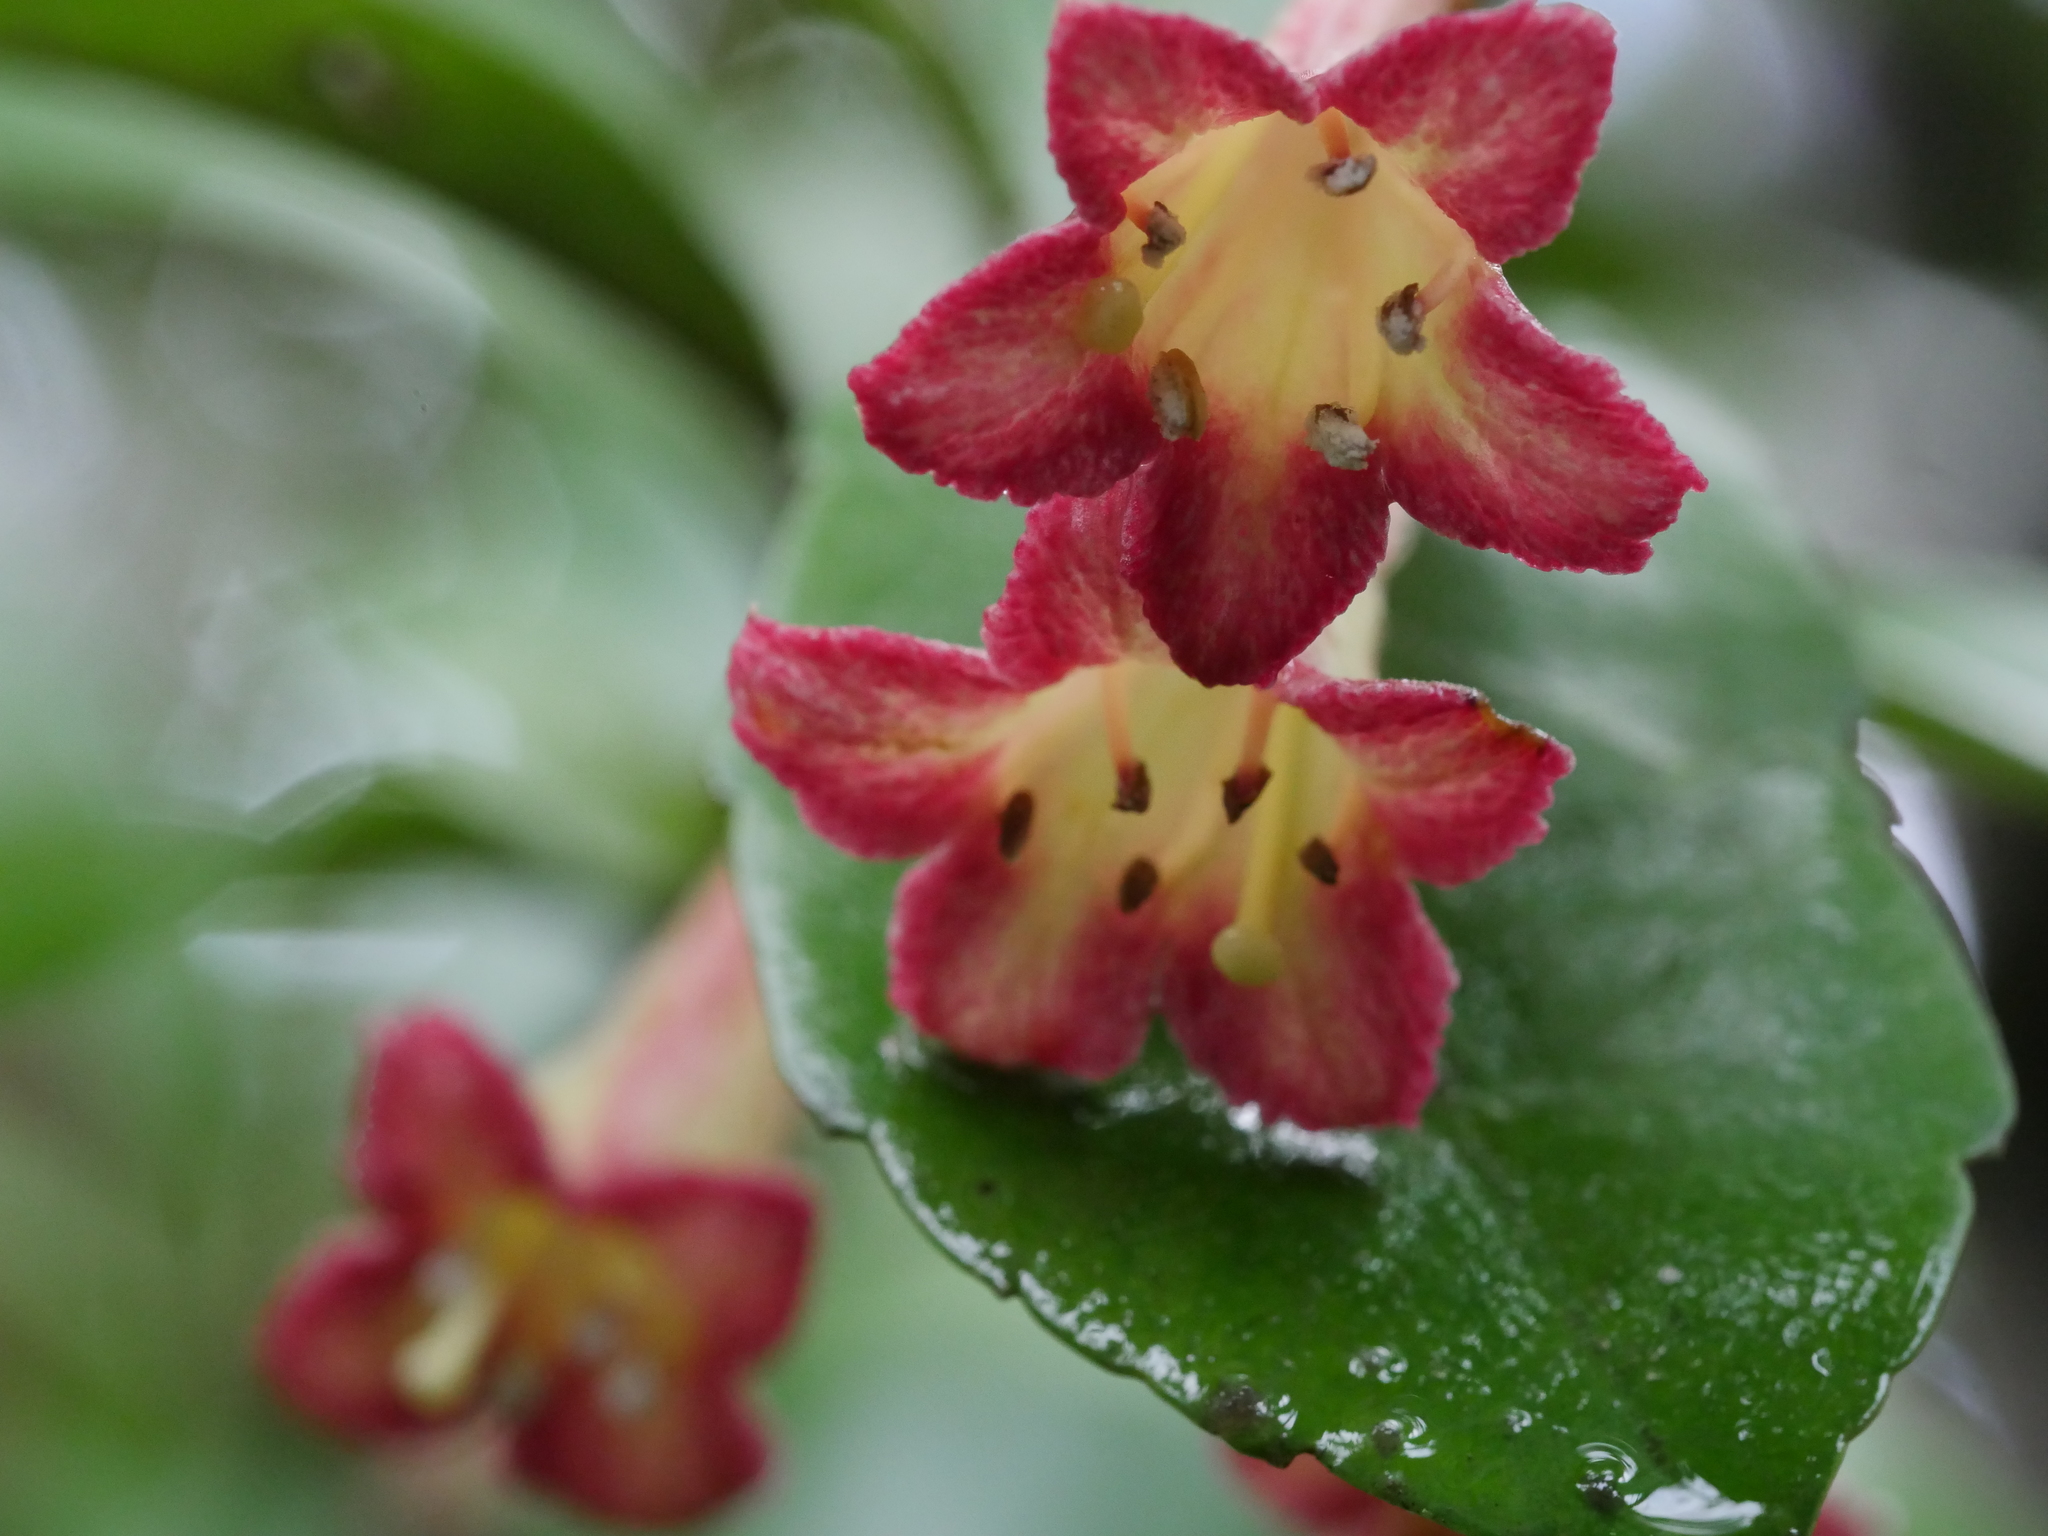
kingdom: Plantae
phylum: Tracheophyta
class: Magnoliopsida
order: Asterales
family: Alseuosmiaceae
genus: Alseuosmia
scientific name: Alseuosmia macrophylla
